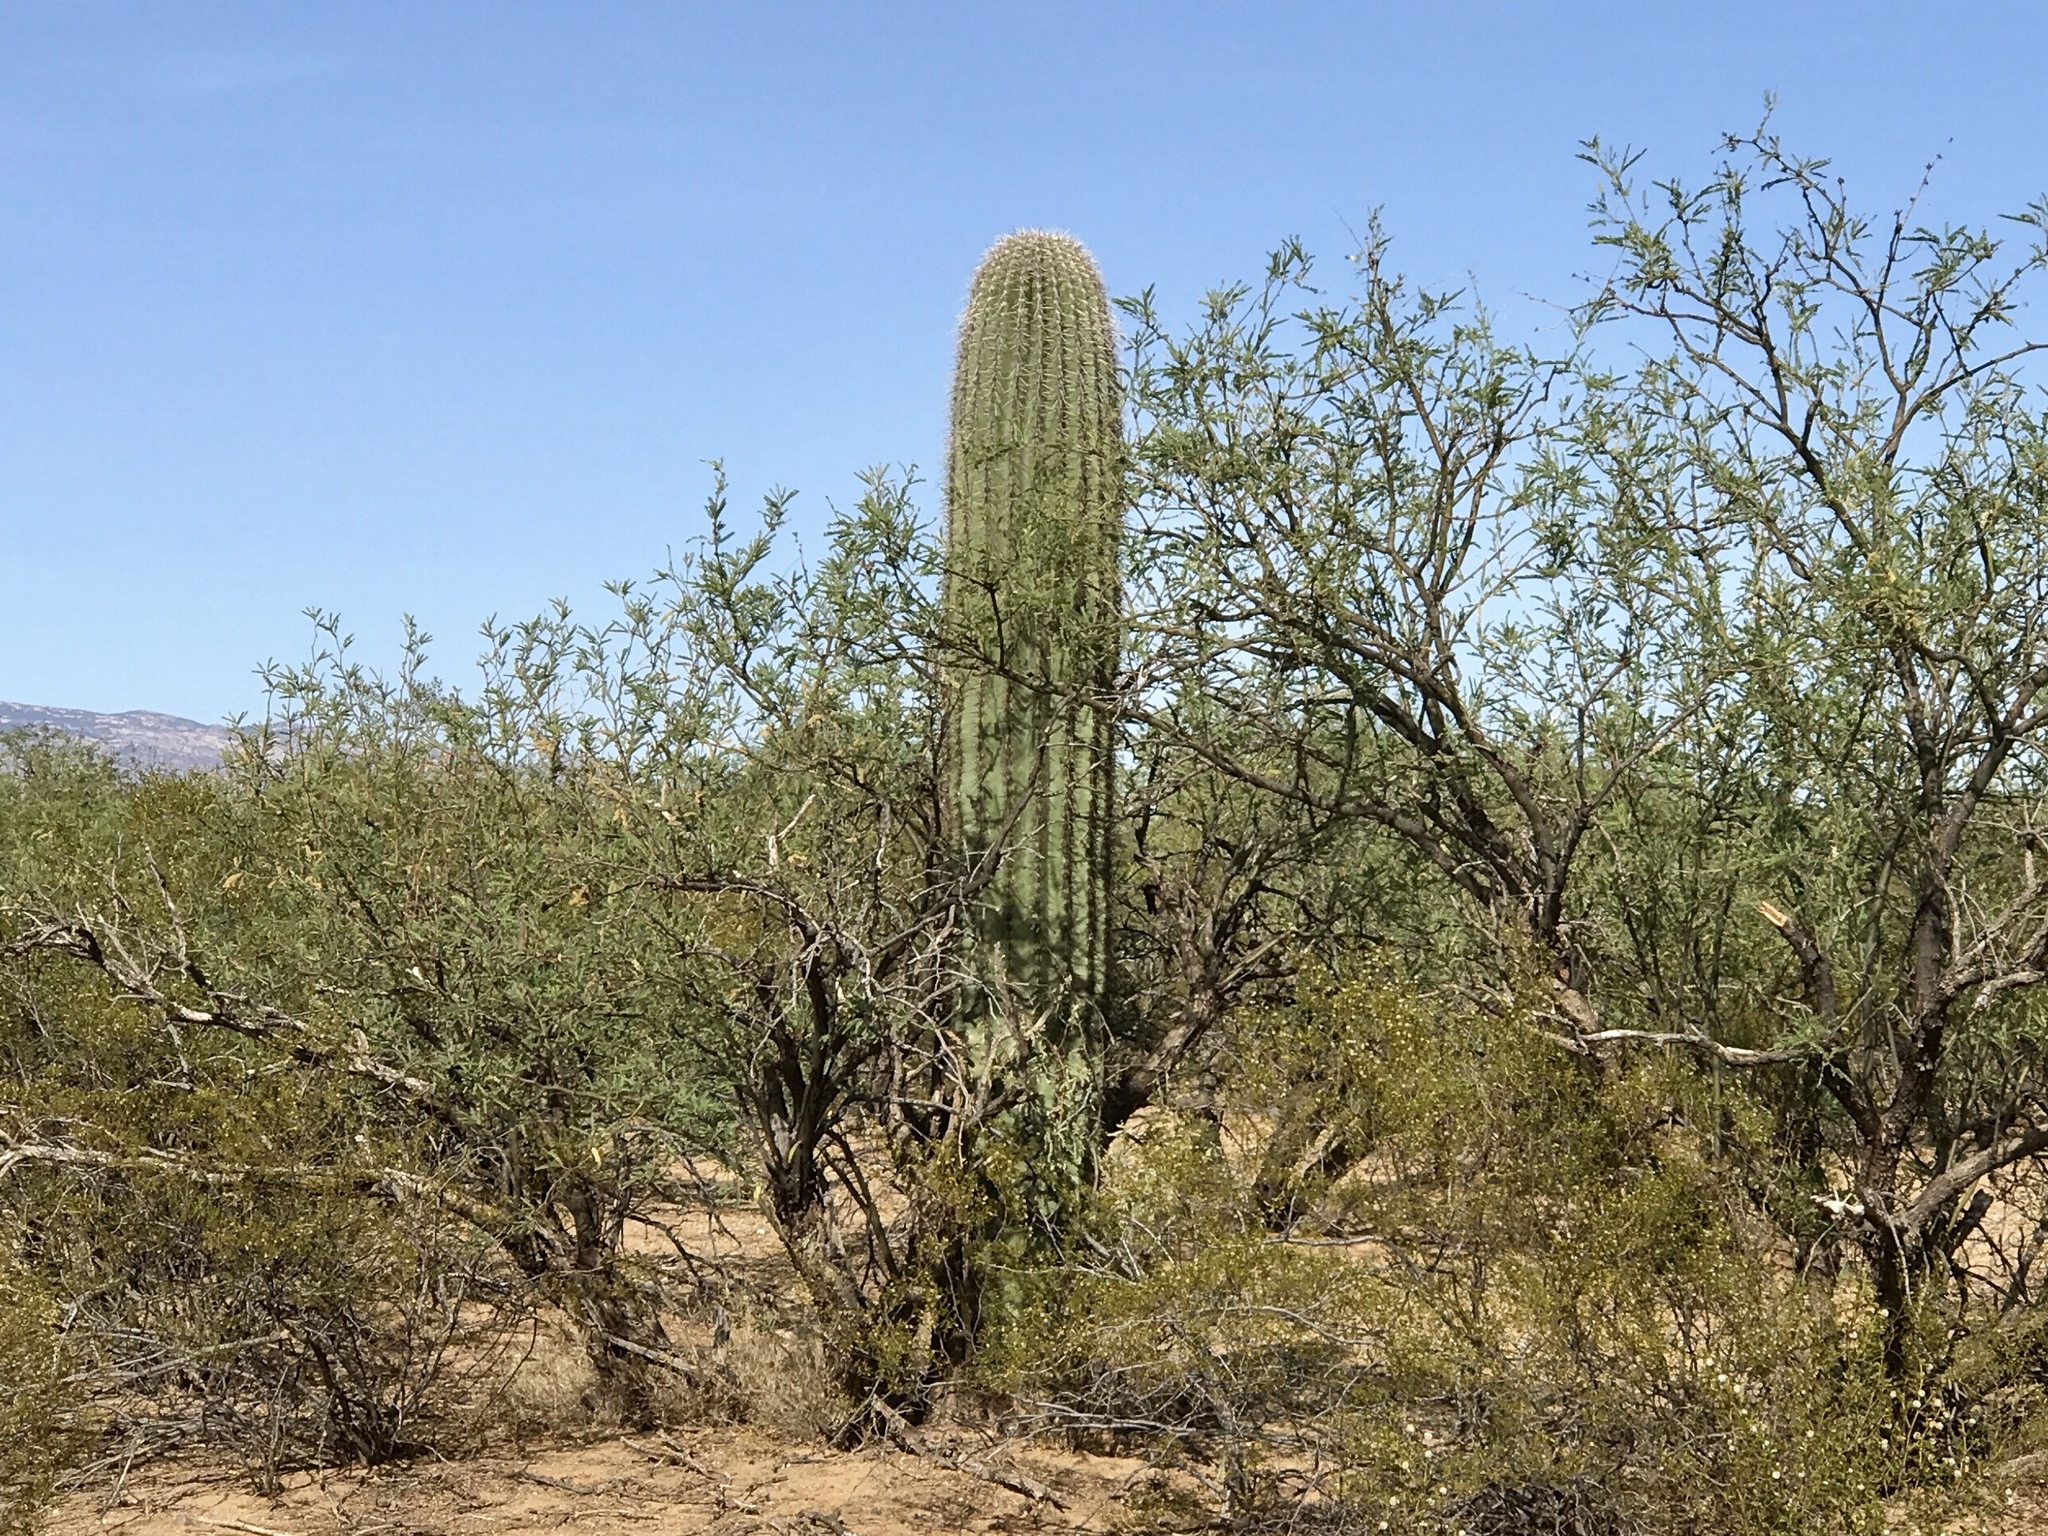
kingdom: Plantae
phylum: Tracheophyta
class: Magnoliopsida
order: Caryophyllales
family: Cactaceae
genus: Carnegiea
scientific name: Carnegiea gigantea
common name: Saguaro
